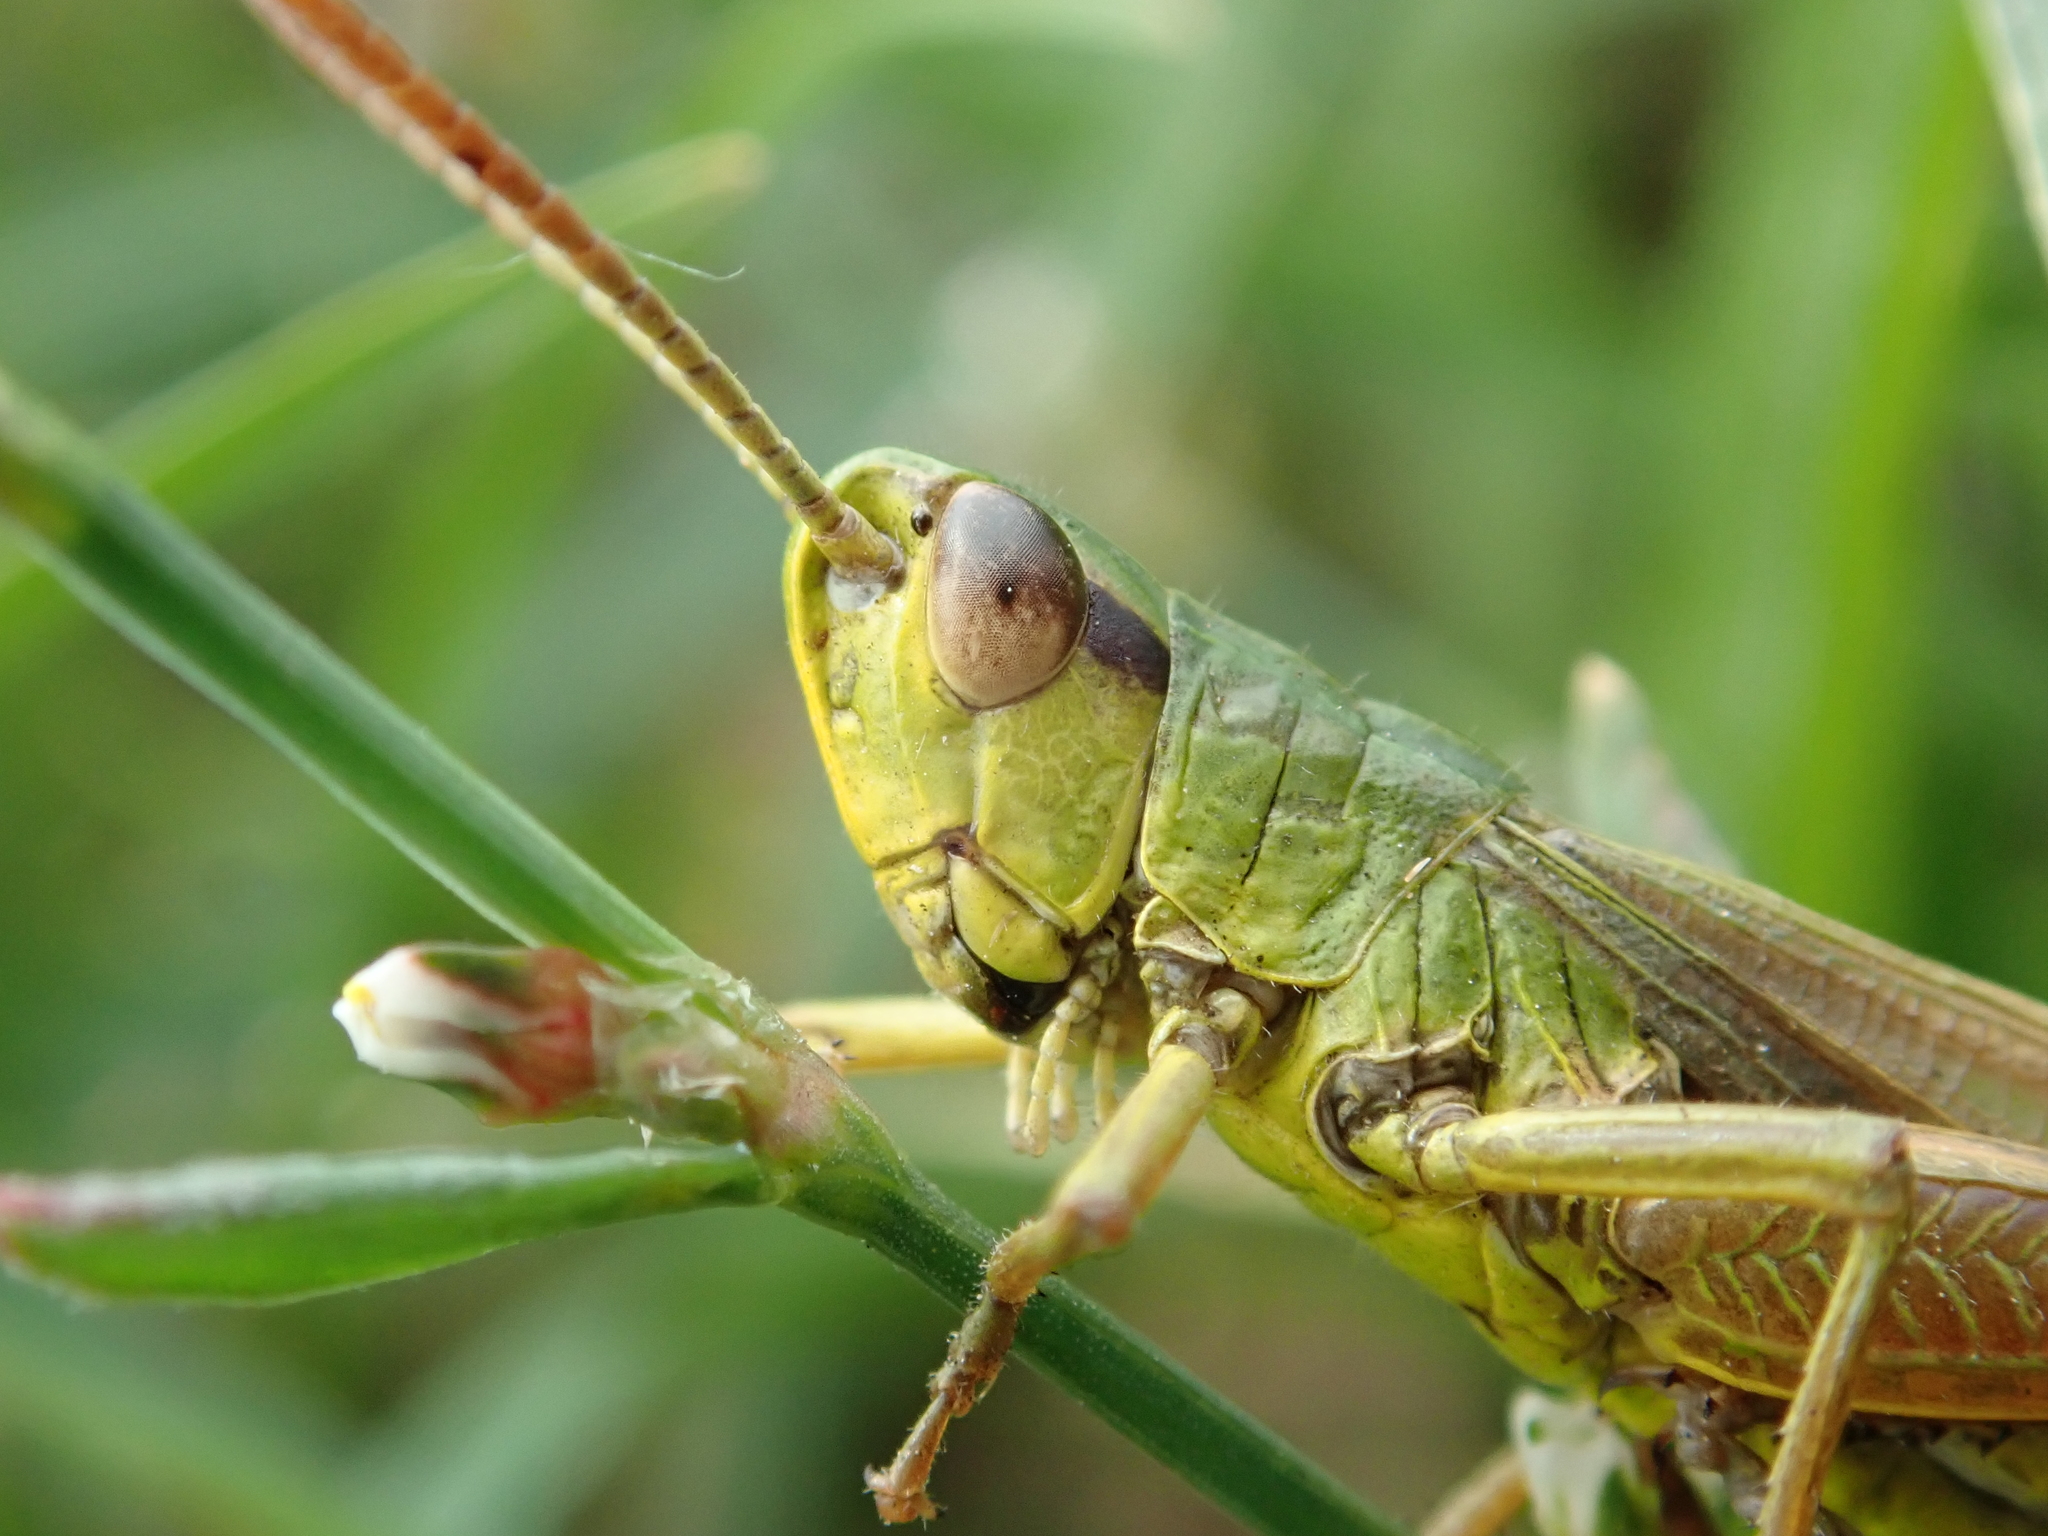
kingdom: Animalia
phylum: Arthropoda
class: Insecta
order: Orthoptera
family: Acrididae
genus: Pseudochorthippus
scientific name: Pseudochorthippus parallelus
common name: Meadow grasshopper
